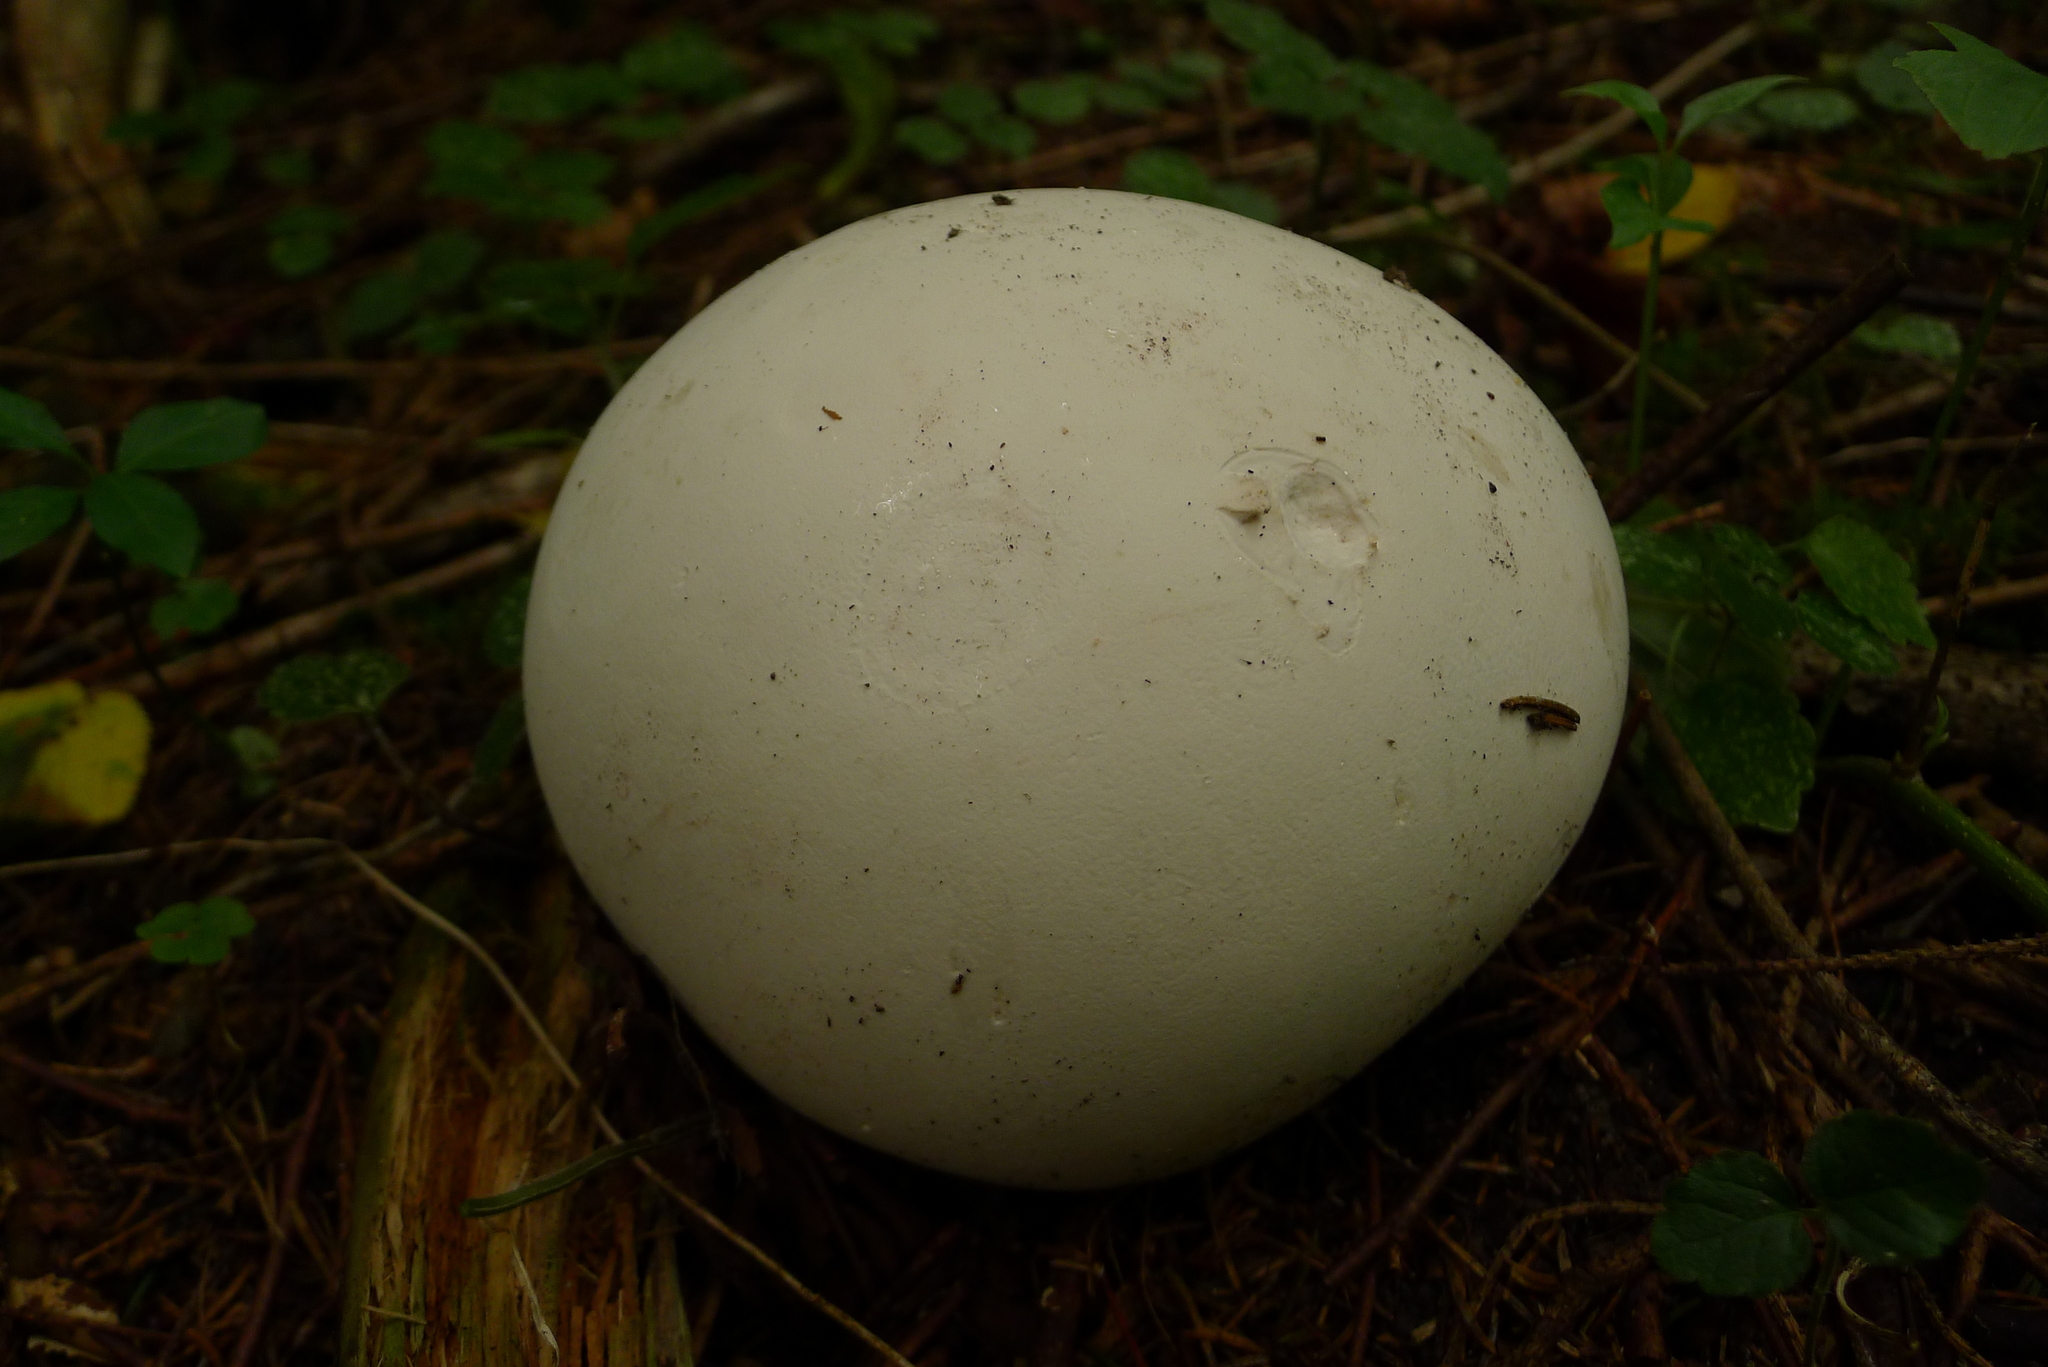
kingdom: Fungi
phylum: Basidiomycota
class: Agaricomycetes
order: Agaricales
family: Lycoperdaceae
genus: Calvatia
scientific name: Calvatia gigantea
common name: Giant puffball
